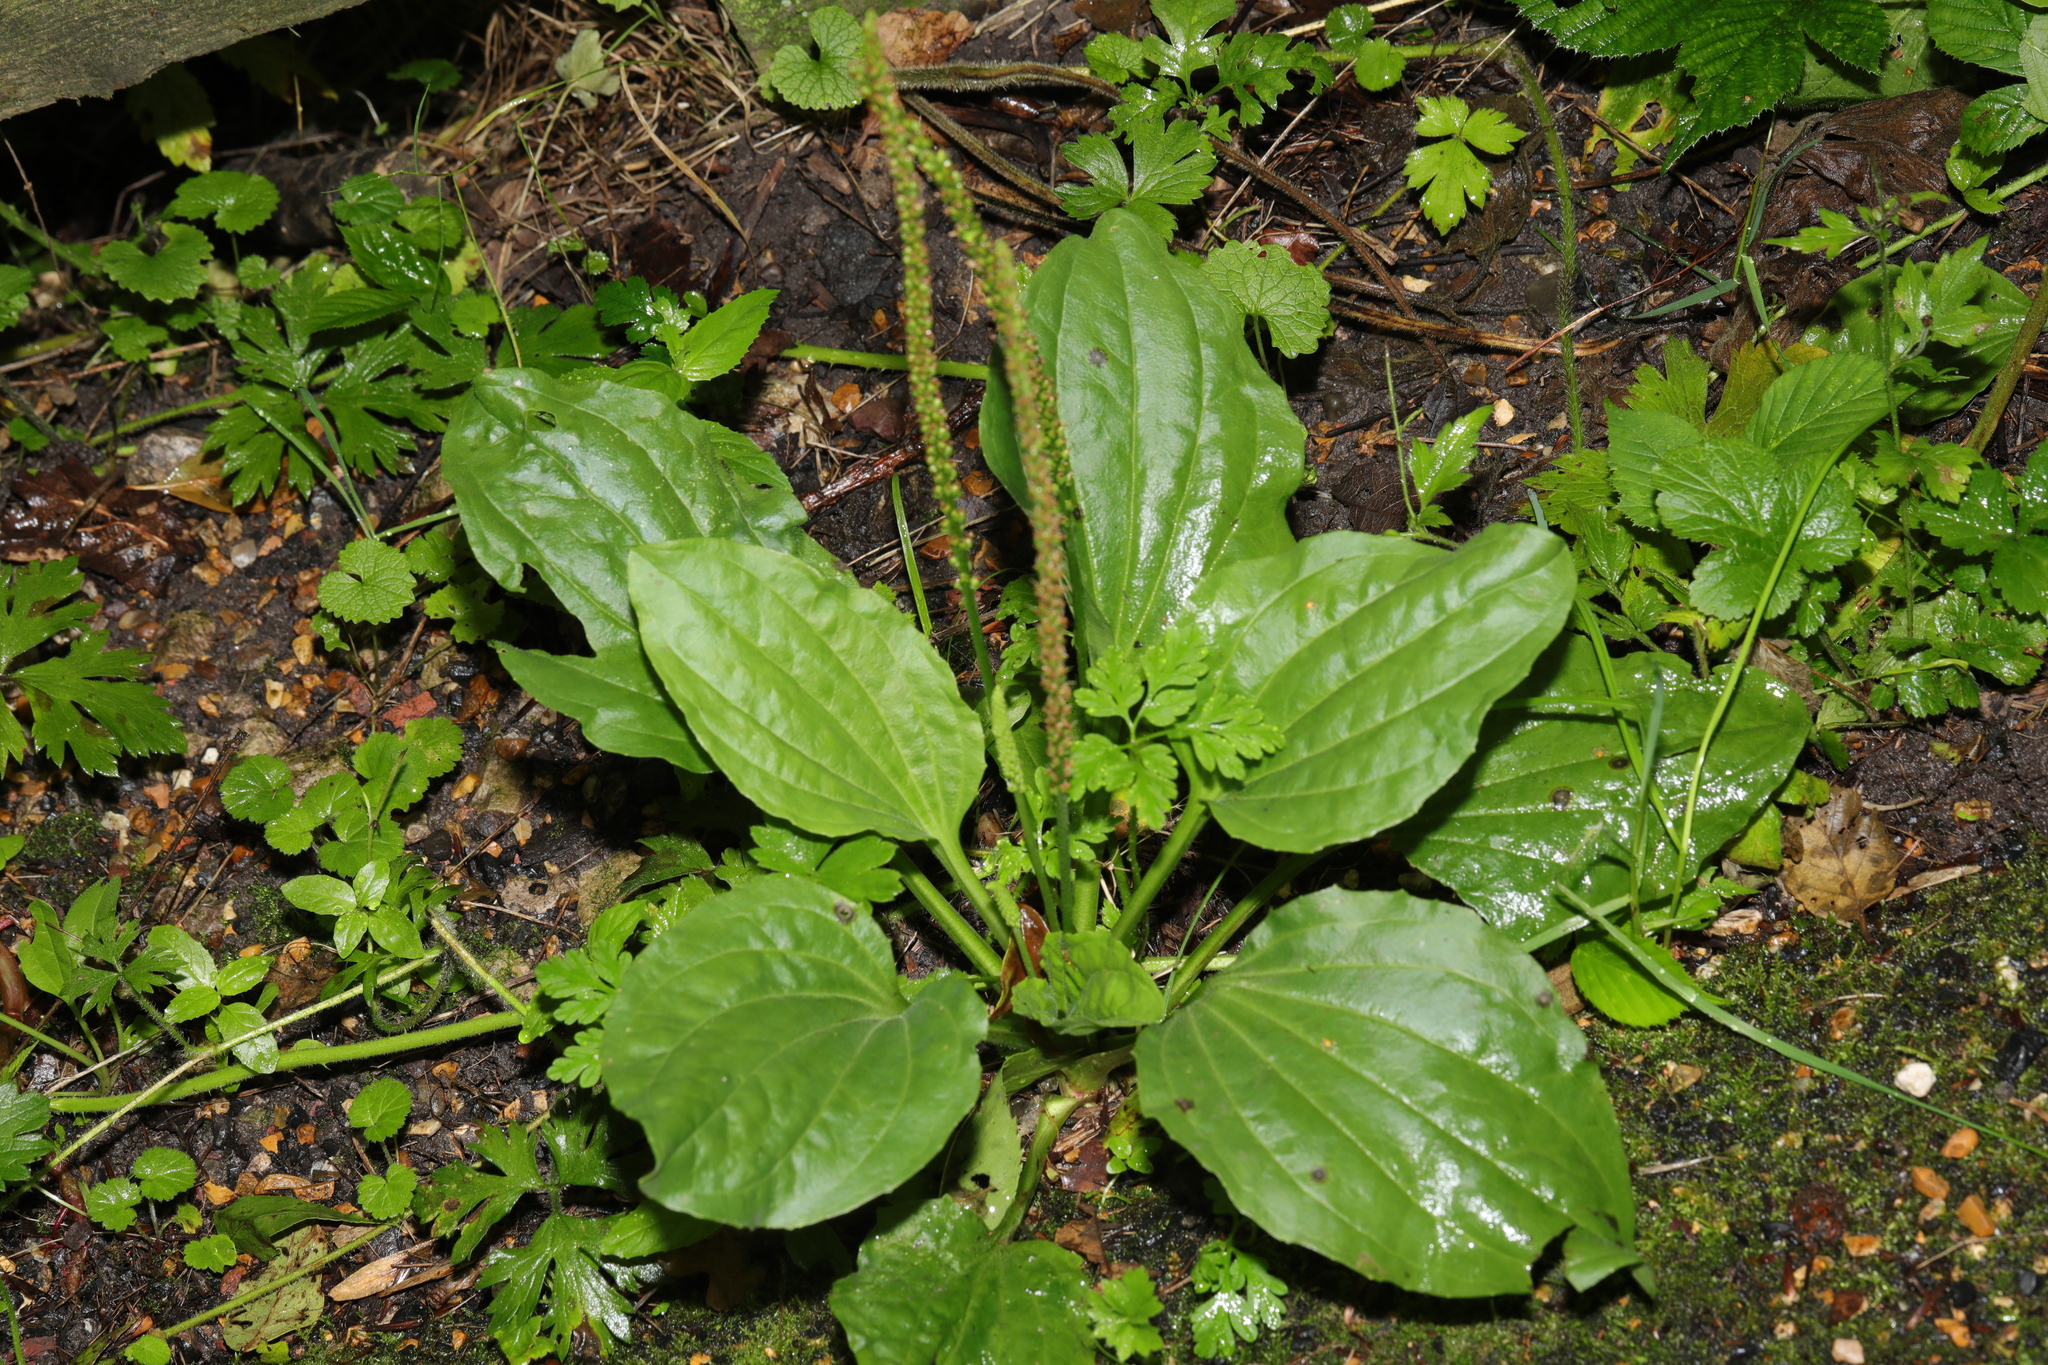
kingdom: Plantae
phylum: Tracheophyta
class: Magnoliopsida
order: Lamiales
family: Plantaginaceae
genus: Plantago
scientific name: Plantago major
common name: Common plantain
